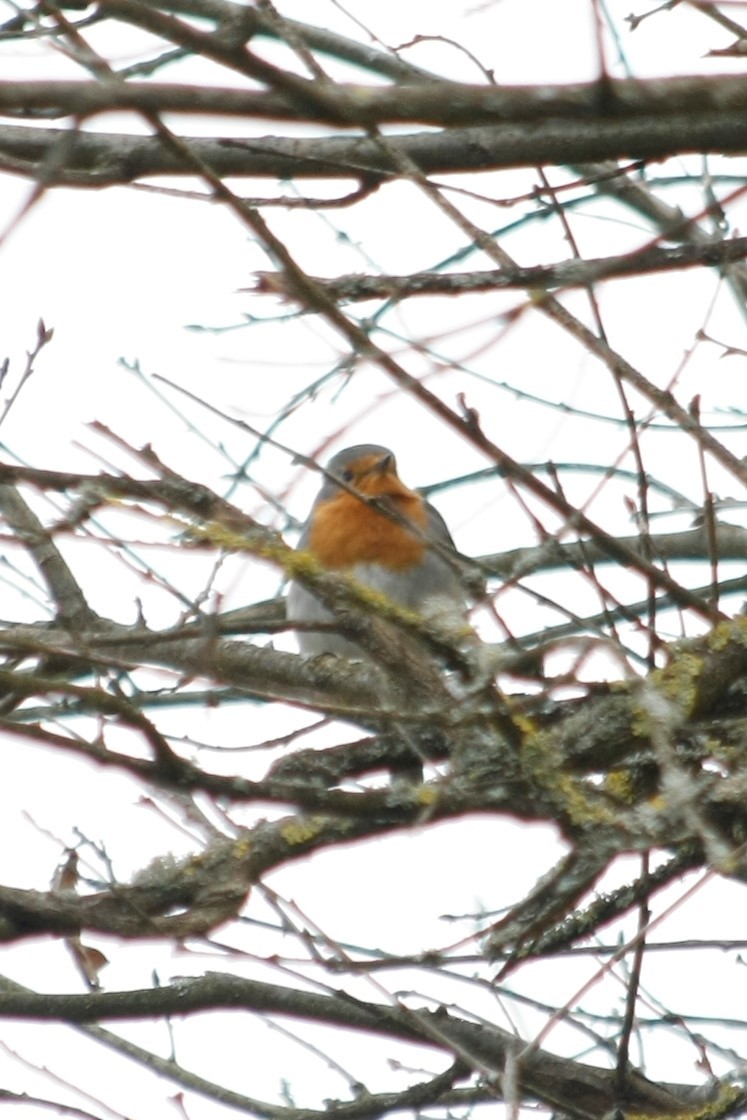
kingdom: Animalia
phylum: Chordata
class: Aves
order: Passeriformes
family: Muscicapidae
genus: Erithacus
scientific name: Erithacus rubecula
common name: European robin
